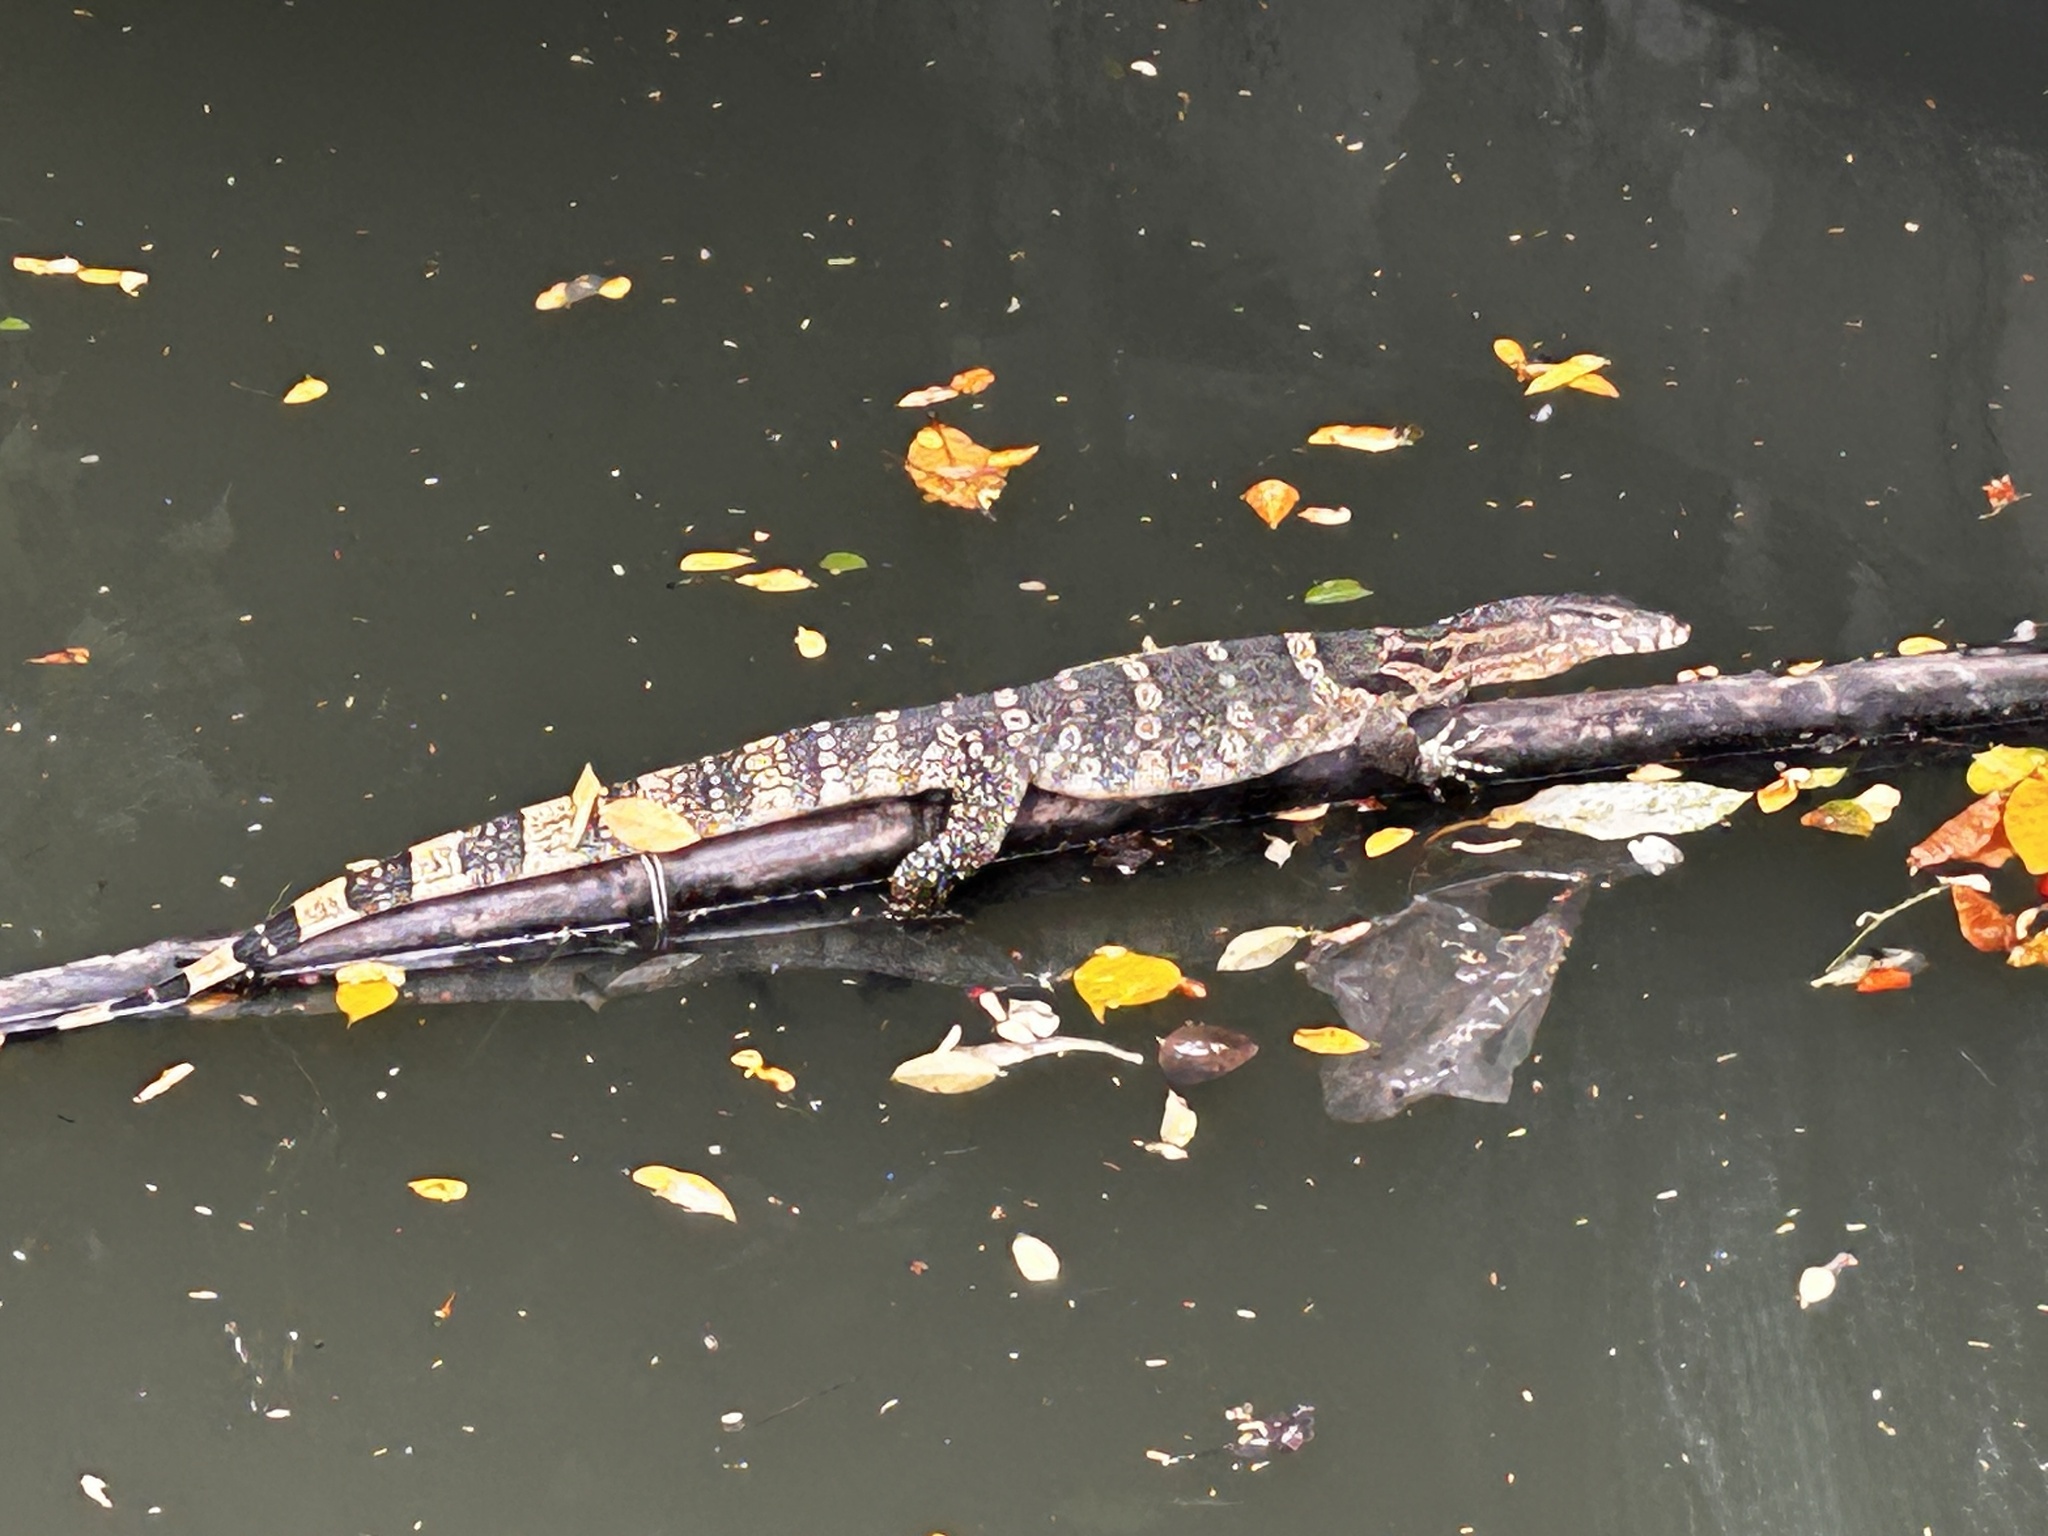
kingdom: Animalia
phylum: Chordata
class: Squamata
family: Varanidae
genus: Varanus
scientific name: Varanus salvator
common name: Common water monitor
